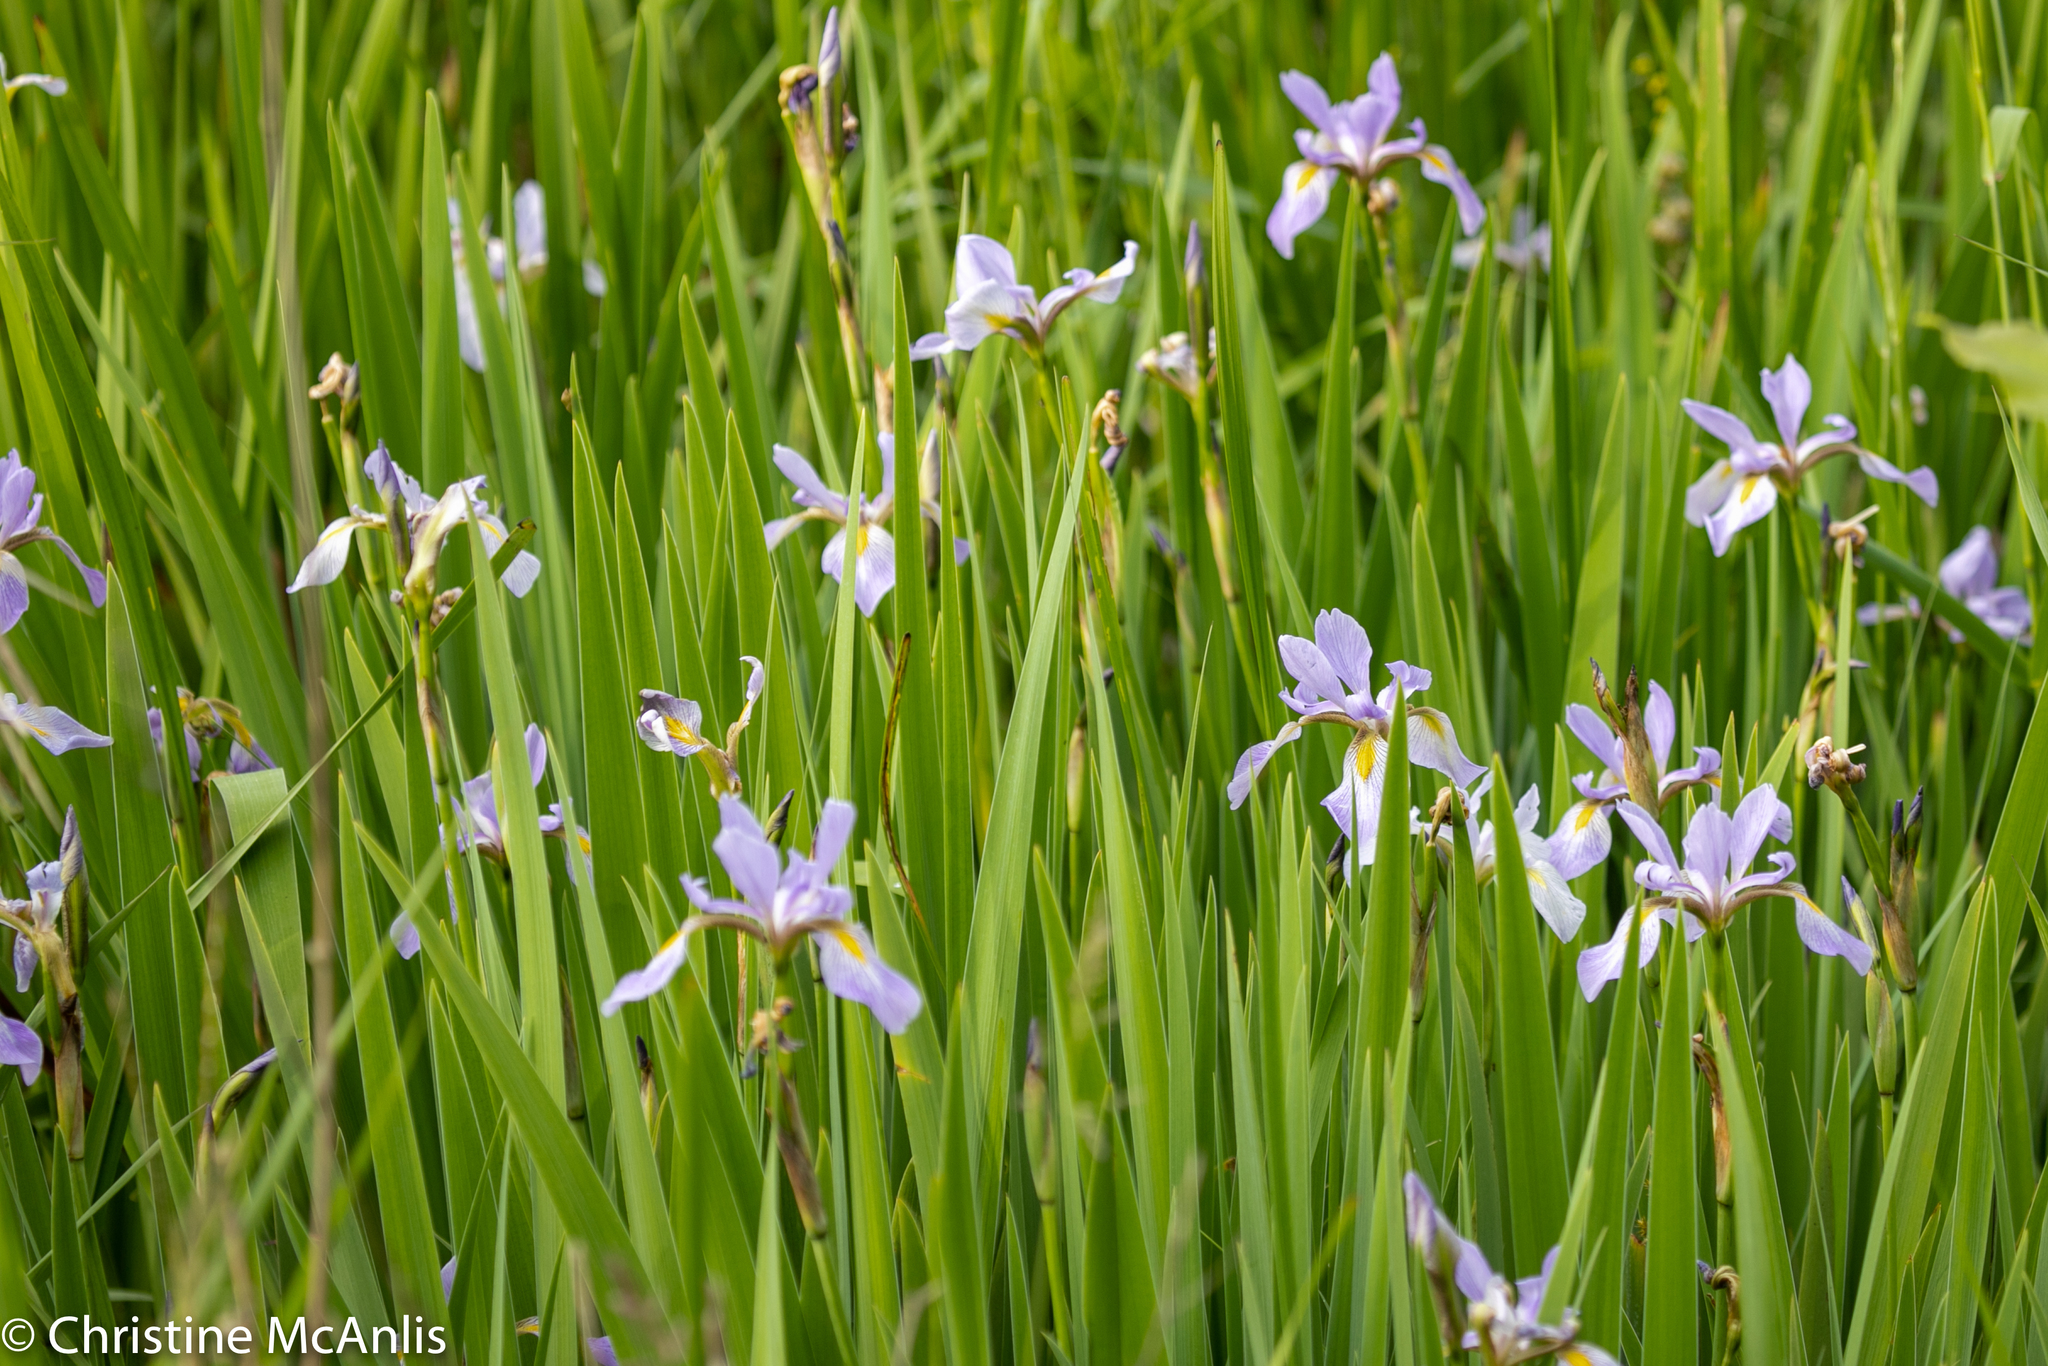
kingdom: Plantae
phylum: Tracheophyta
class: Liliopsida
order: Asparagales
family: Iridaceae
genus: Iris
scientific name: Iris virginica
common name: Southern blue flag
